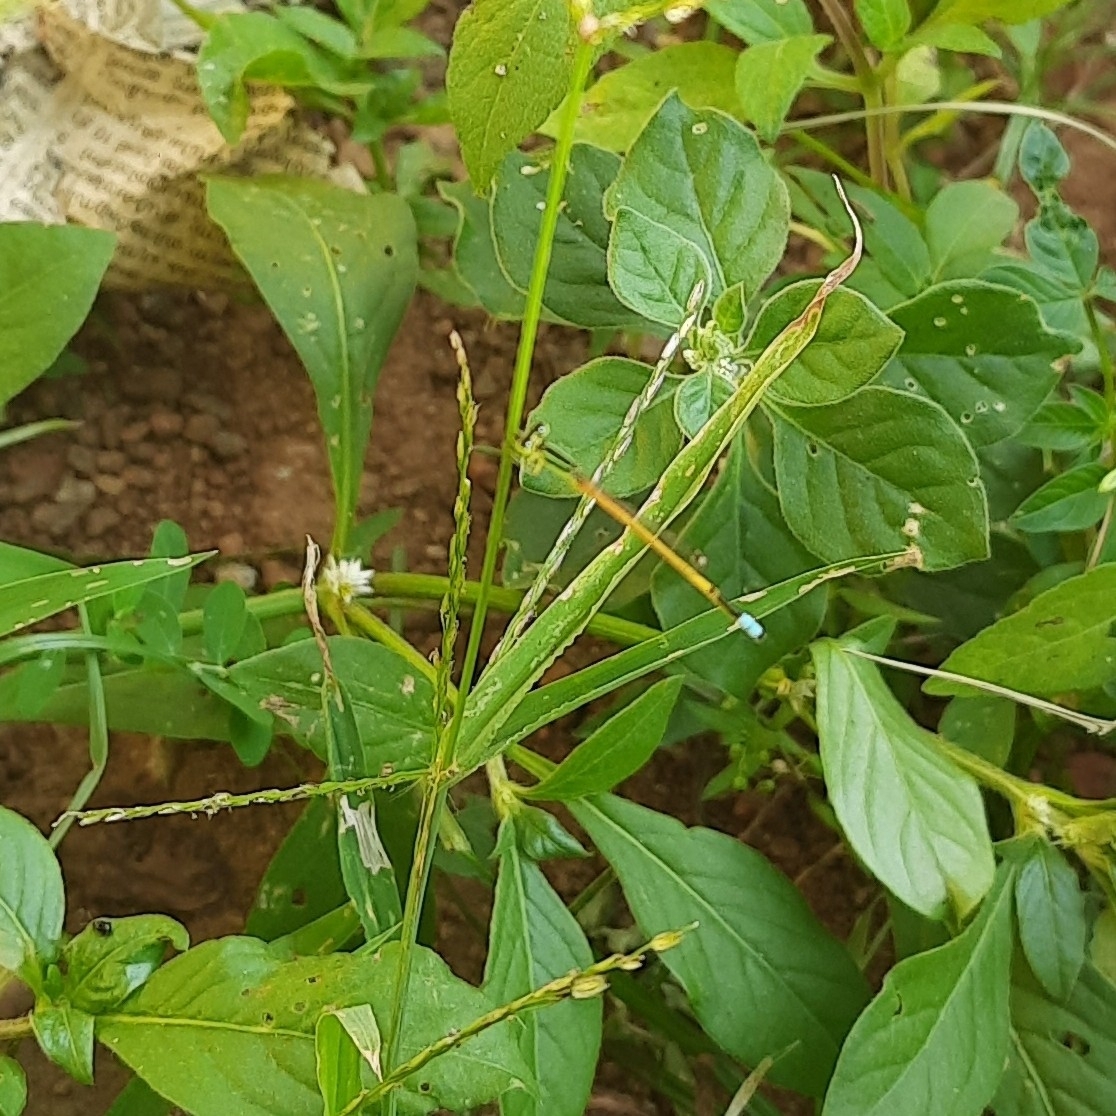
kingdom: Animalia
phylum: Arthropoda
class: Insecta
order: Odonata
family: Coenagrionidae
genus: Ischnura
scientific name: Ischnura rubilio
